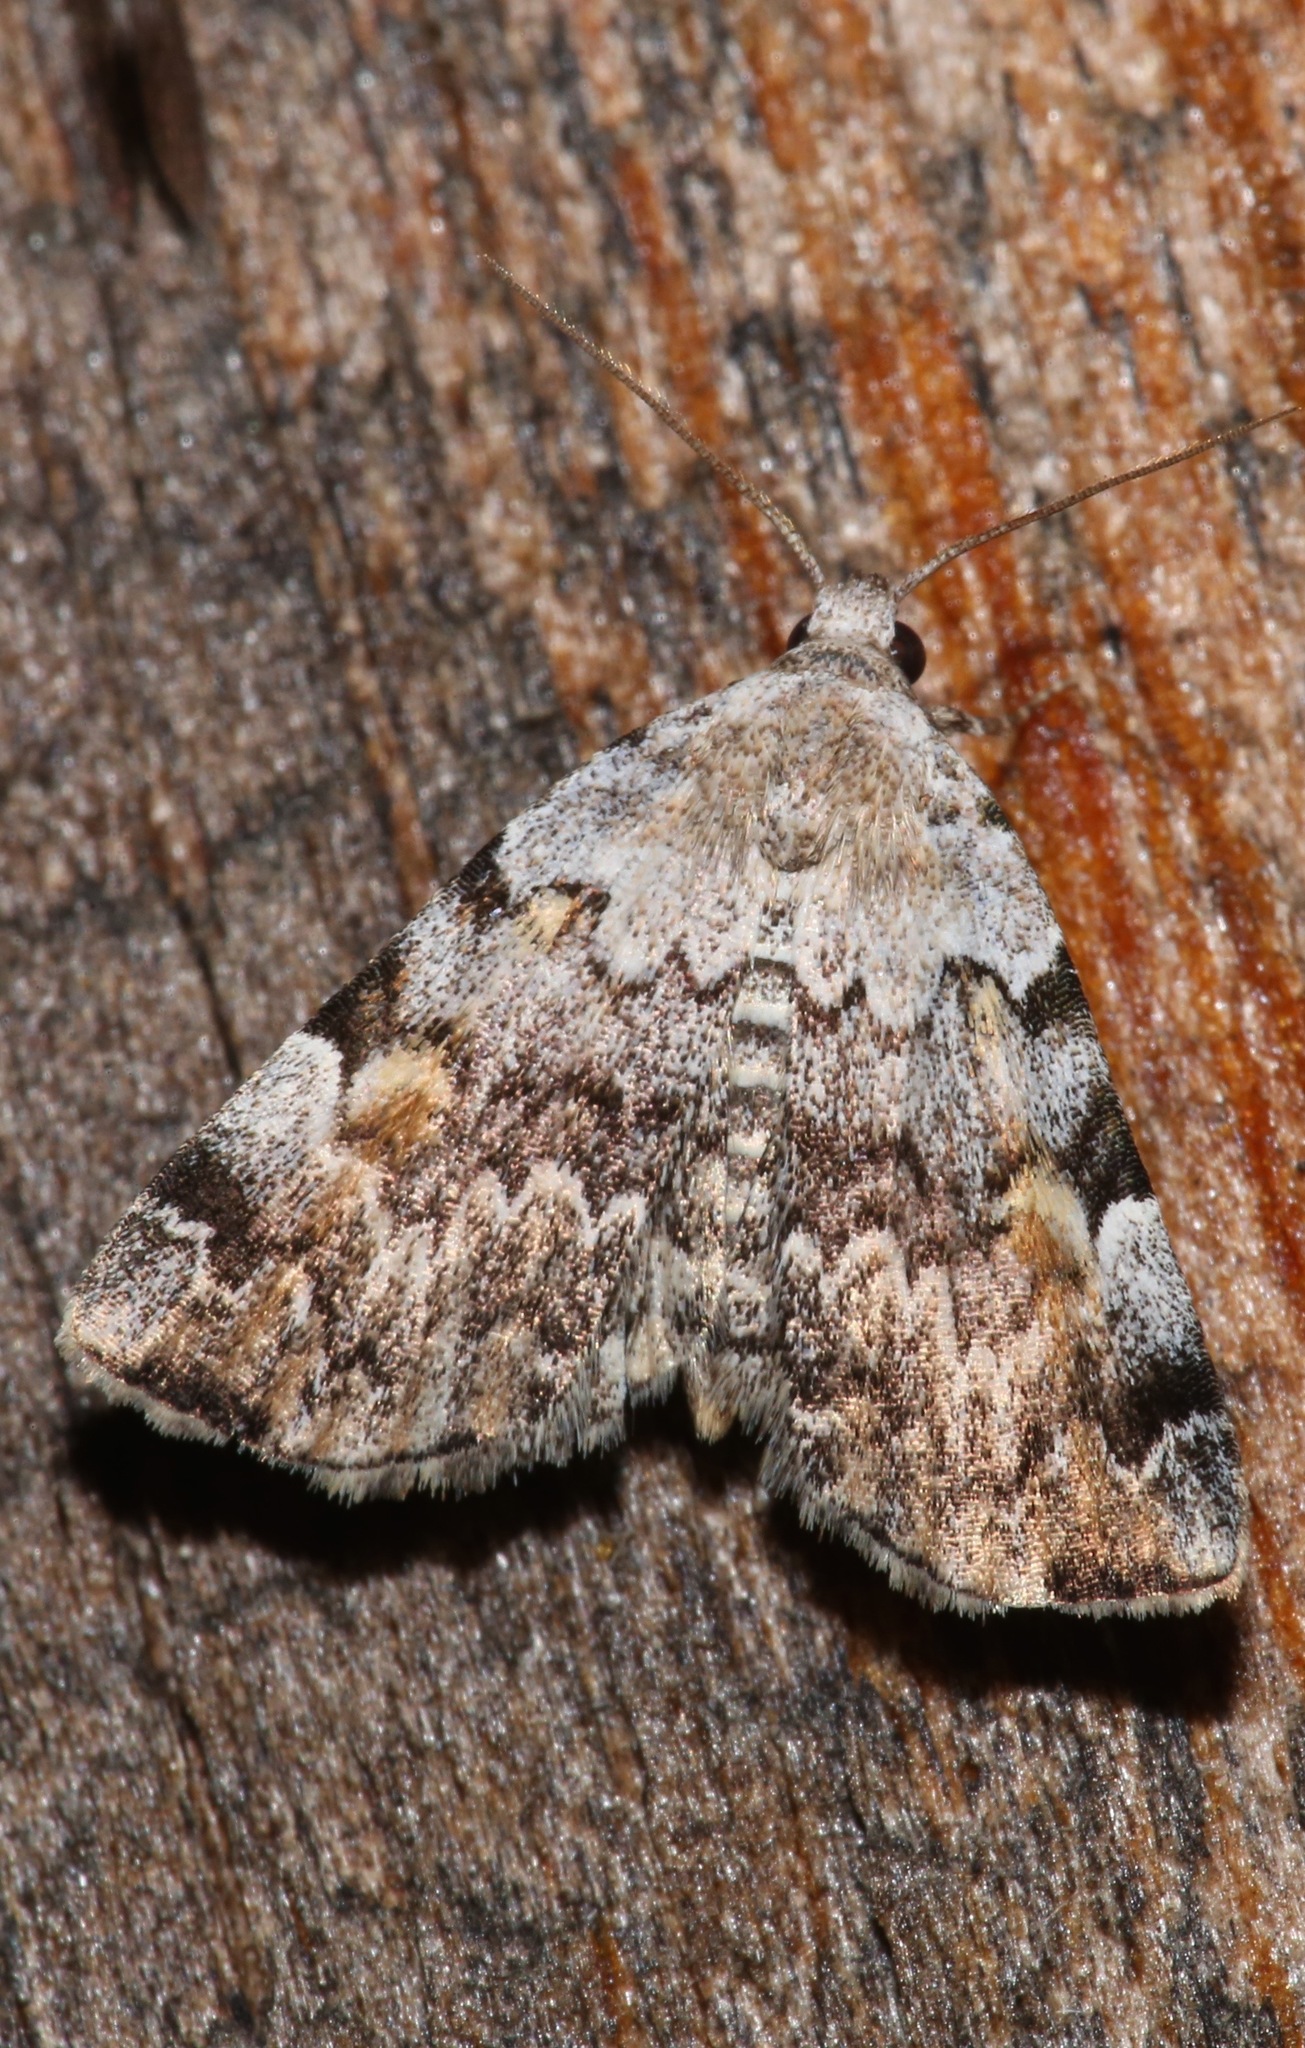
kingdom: Animalia
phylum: Arthropoda
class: Insecta
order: Lepidoptera
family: Erebidae
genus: Idia
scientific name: Idia americalis
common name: American idia moth
